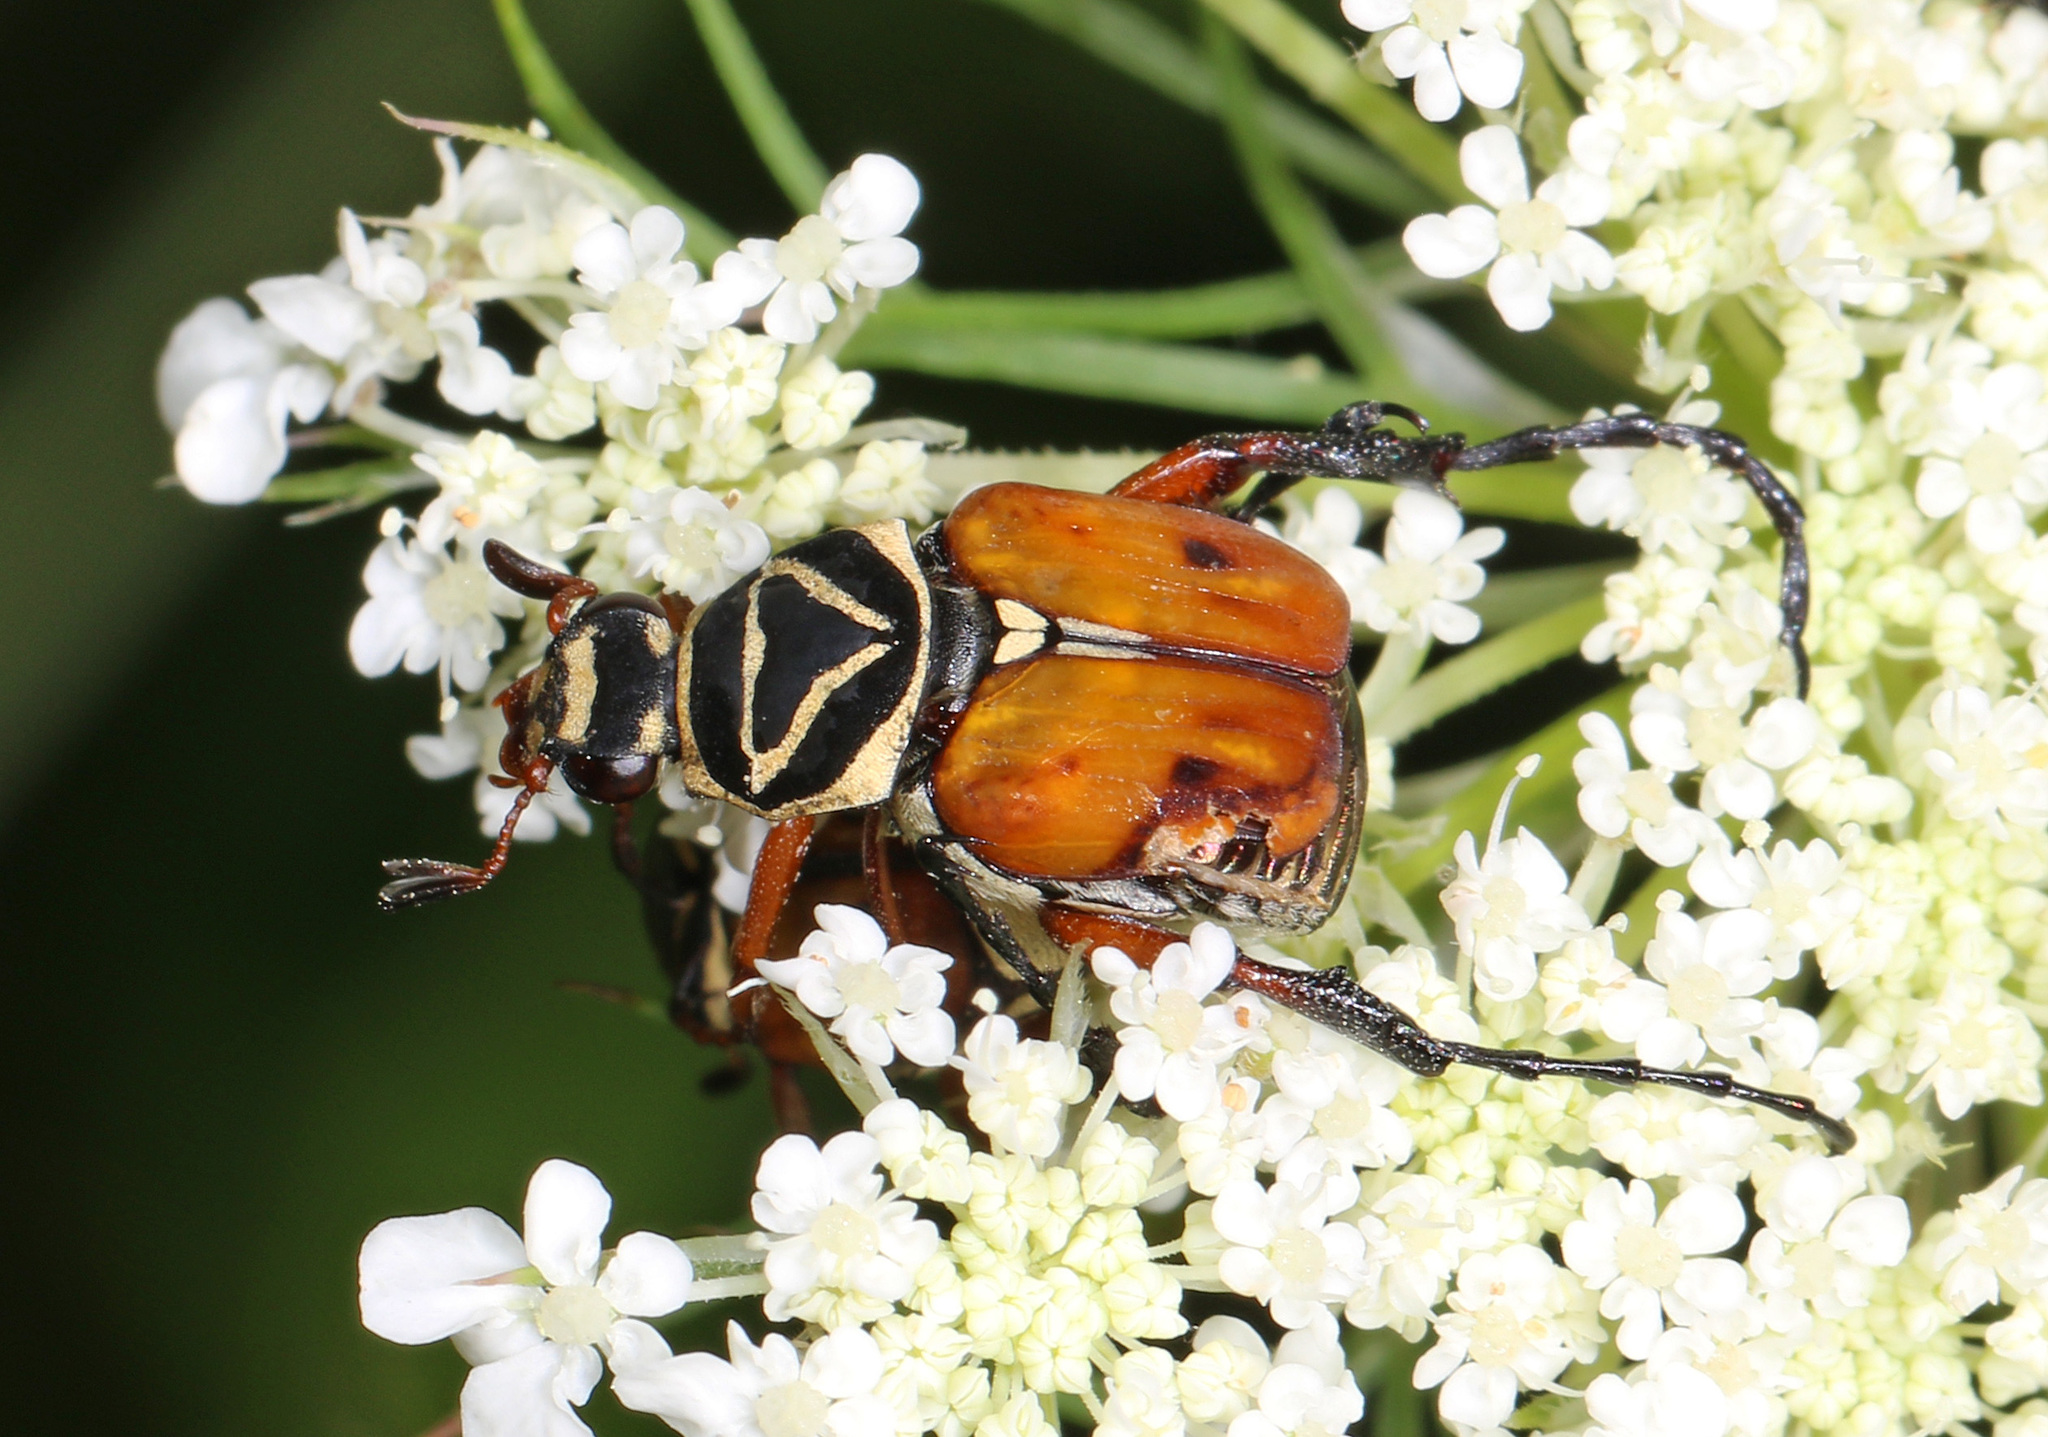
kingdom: Animalia
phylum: Arthropoda
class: Insecta
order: Coleoptera
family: Scarabaeidae
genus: Trigonopeltastes
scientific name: Trigonopeltastes delta
